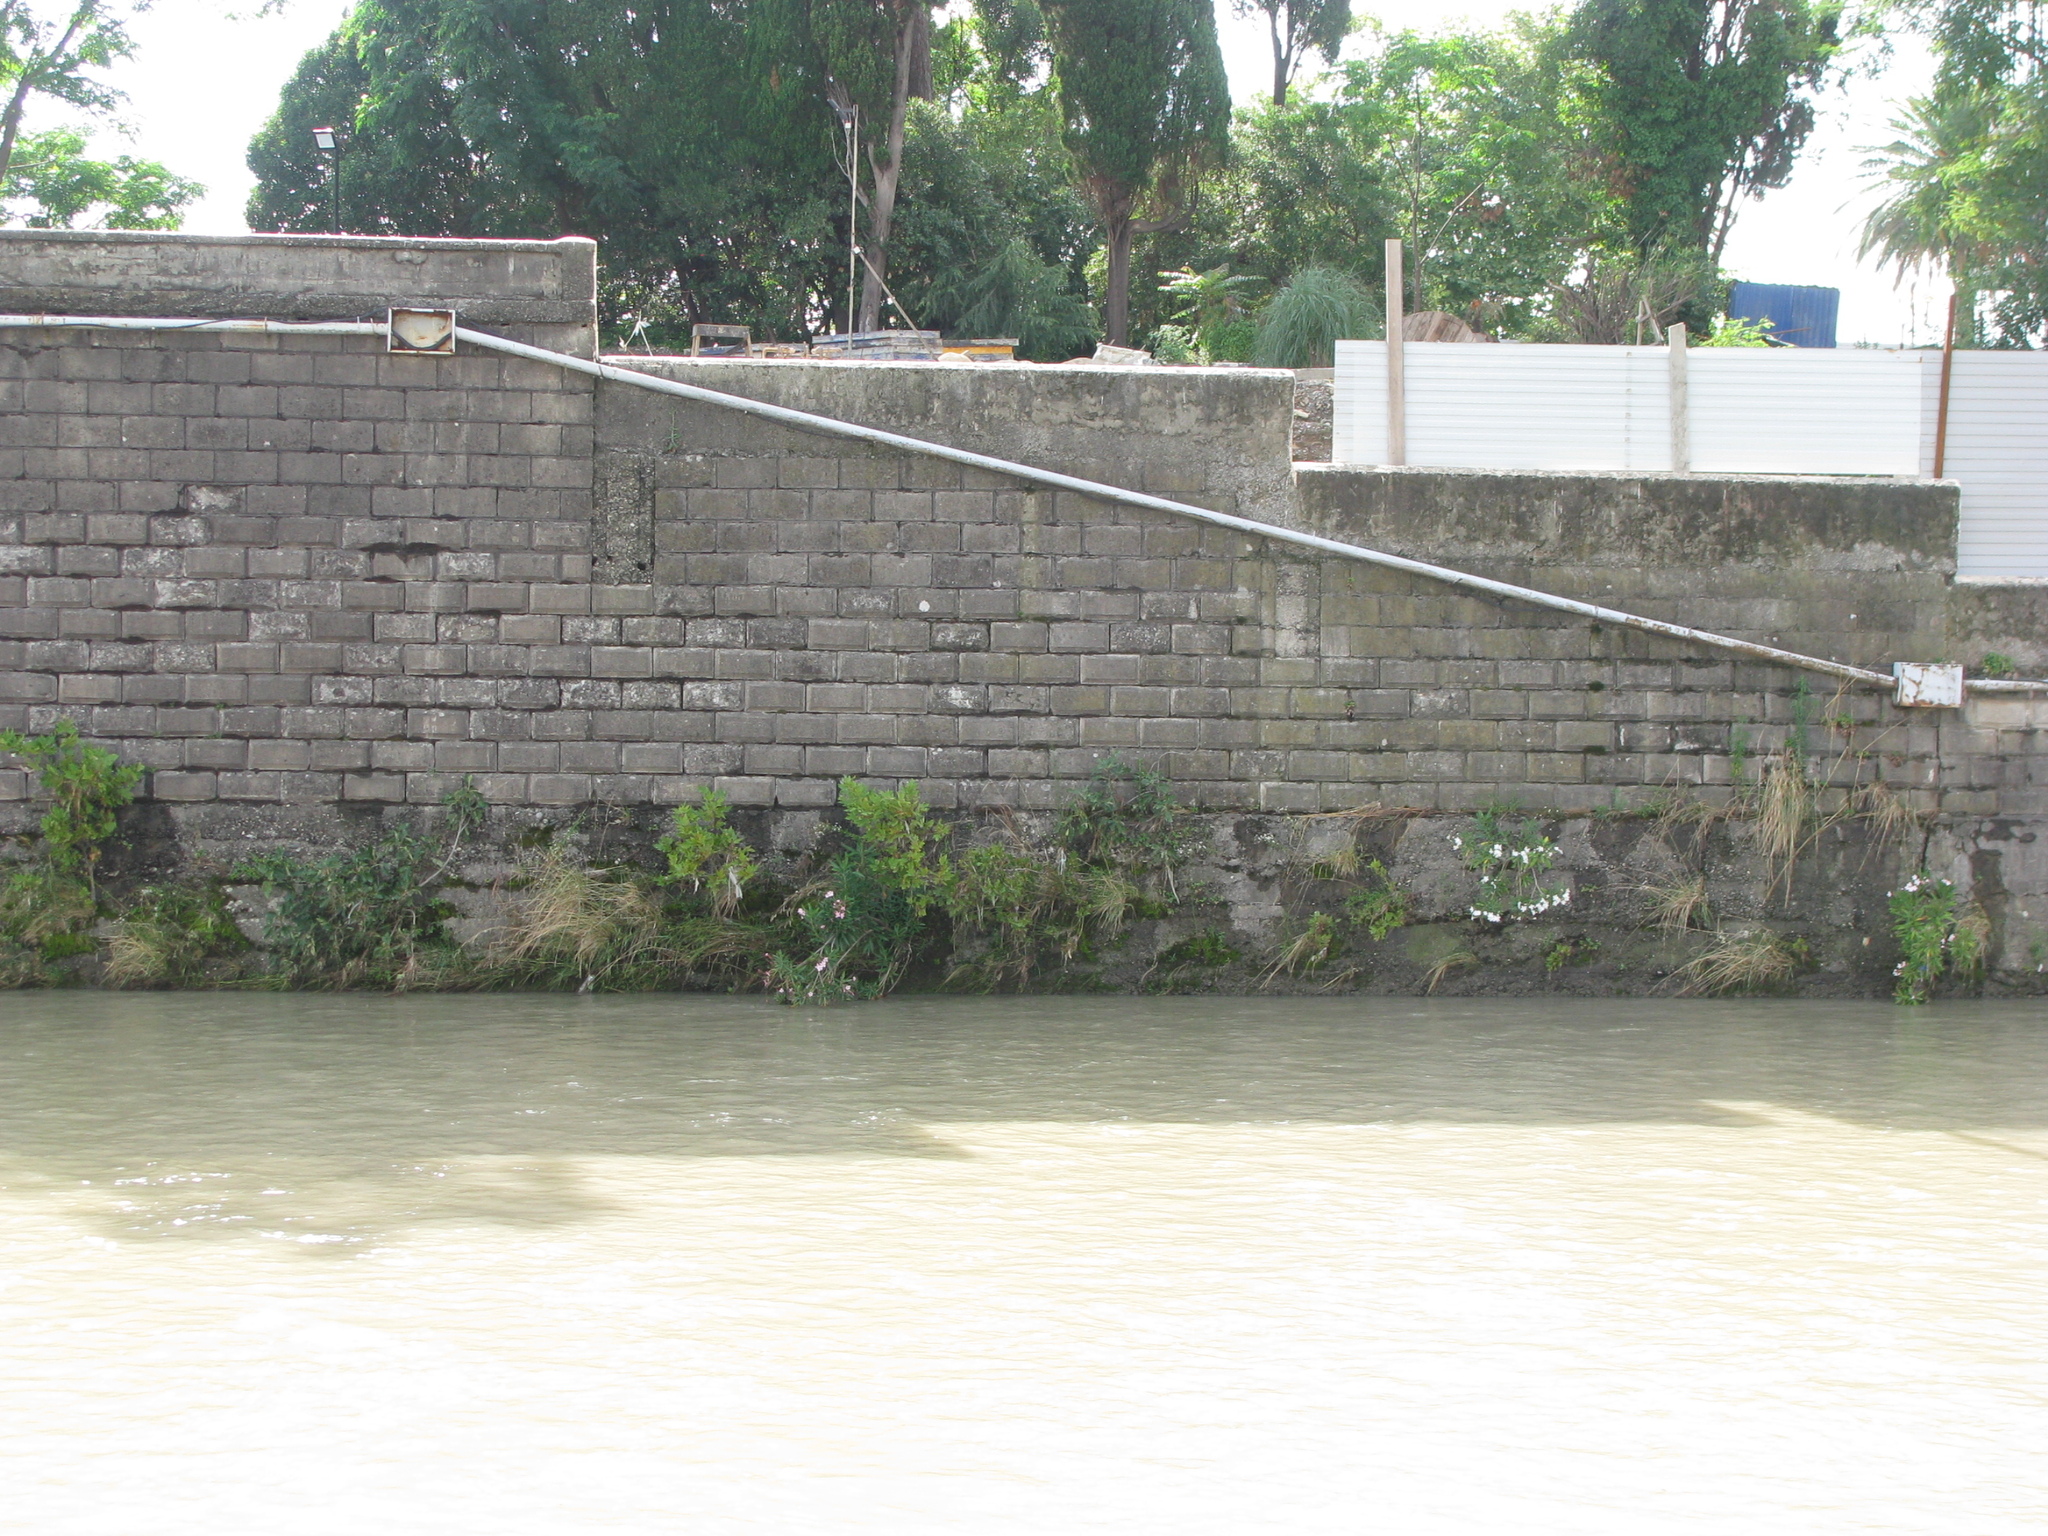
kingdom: Plantae
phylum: Tracheophyta
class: Magnoliopsida
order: Gentianales
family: Apocynaceae
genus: Nerium
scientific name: Nerium oleander
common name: Oleander
